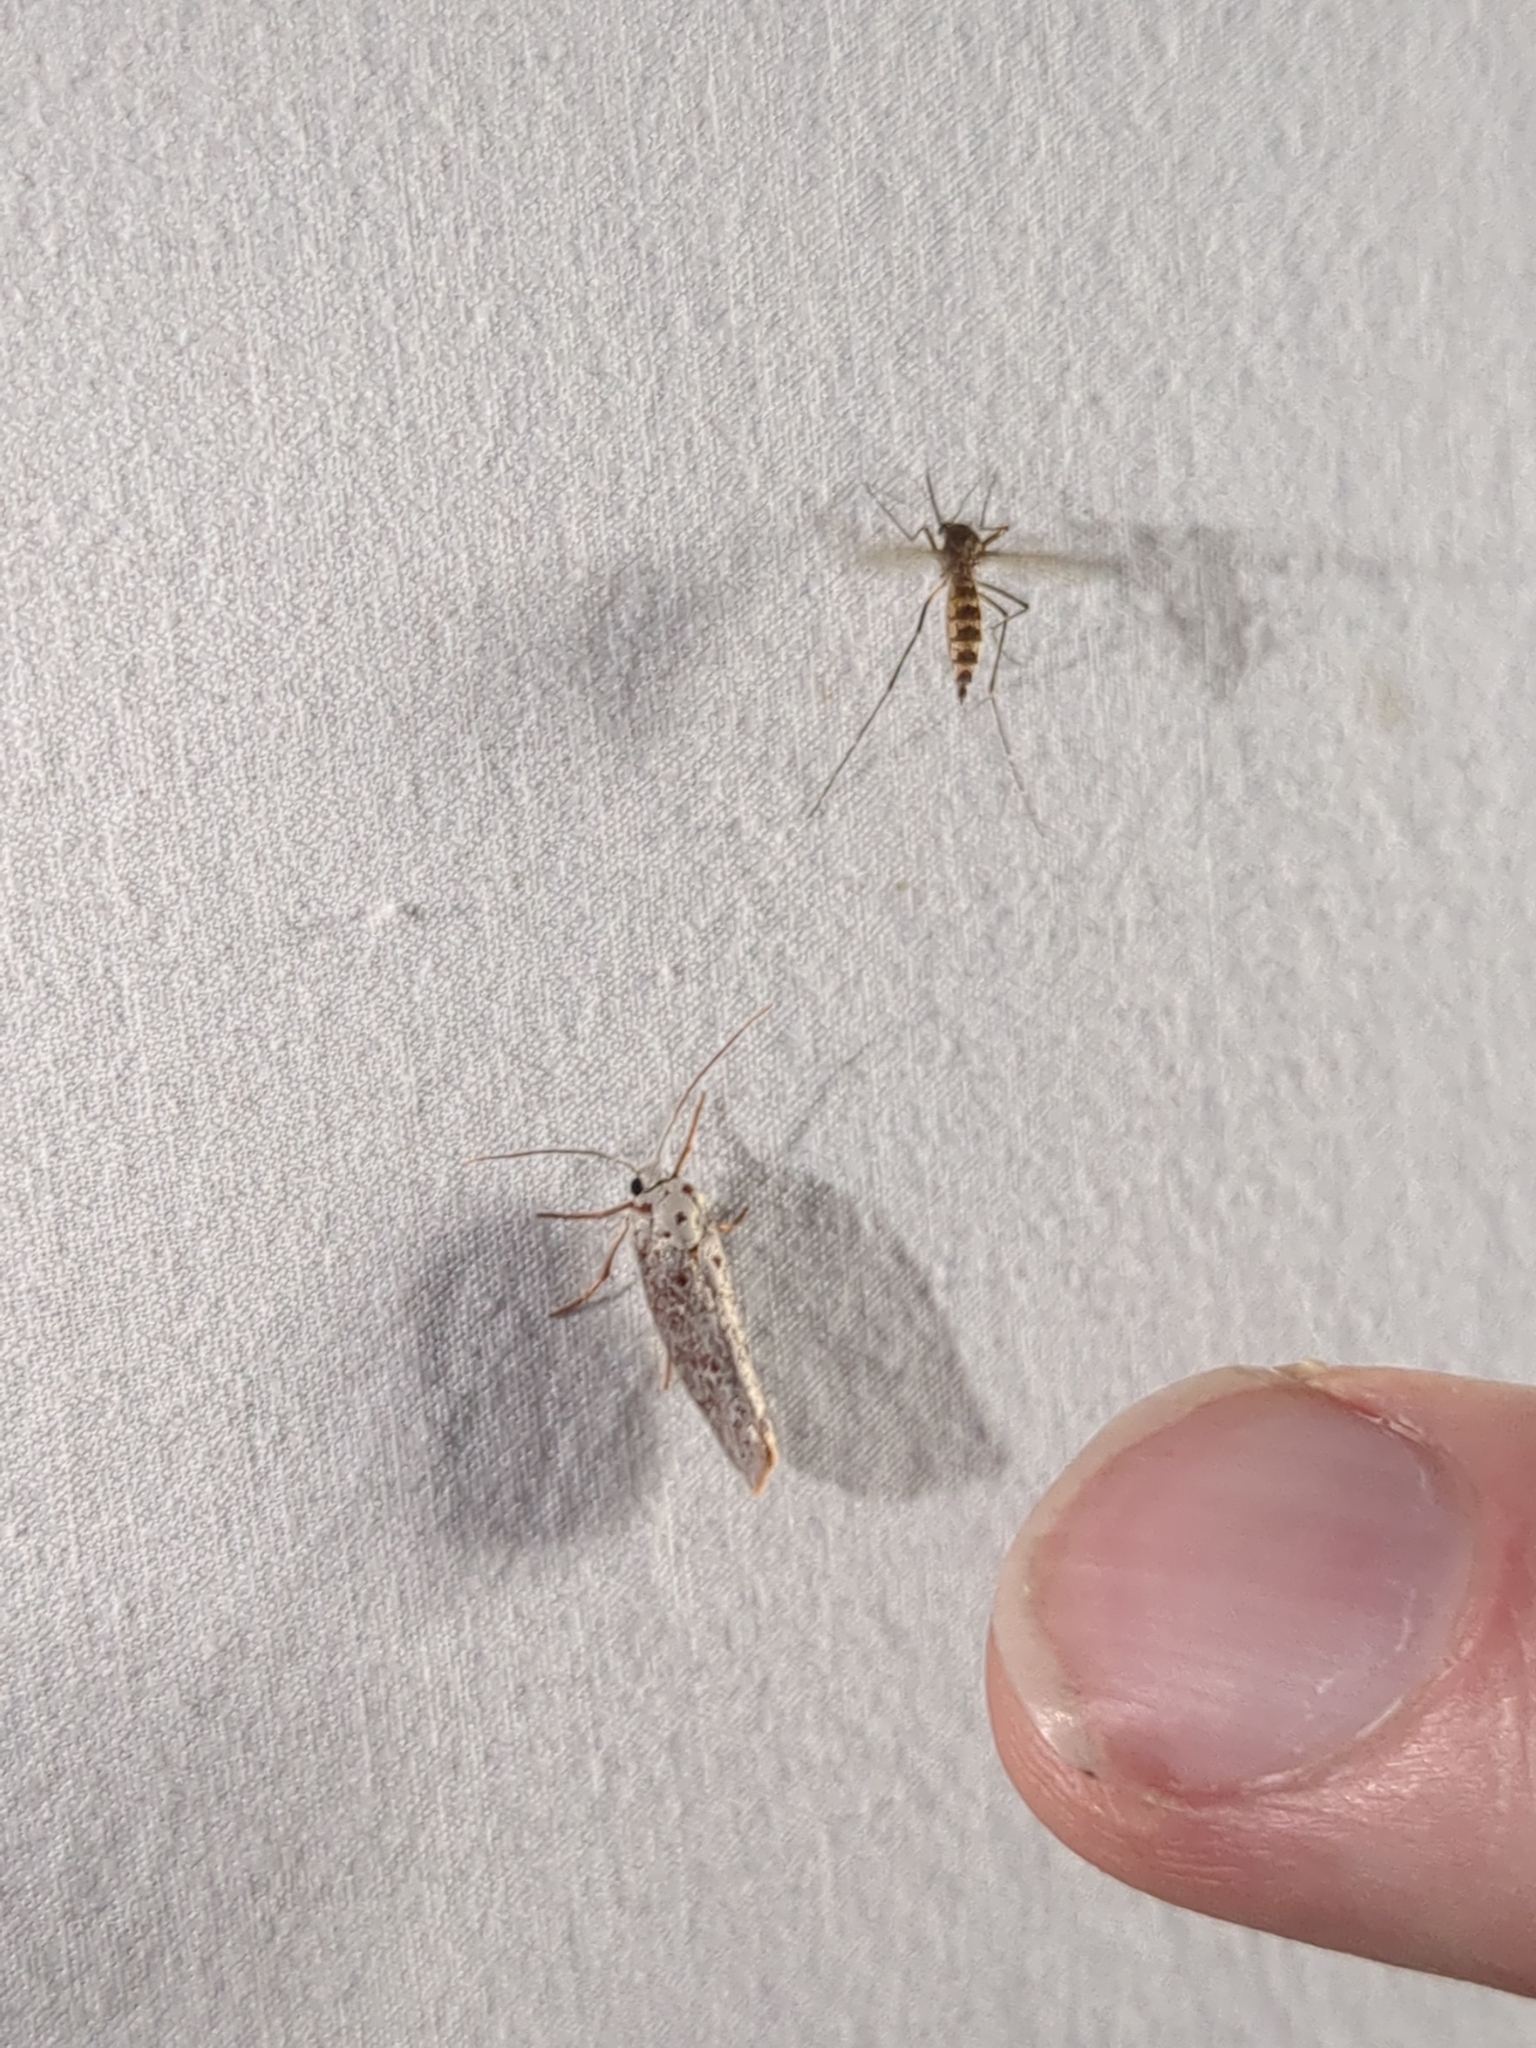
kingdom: Animalia
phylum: Arthropoda
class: Insecta
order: Lepidoptera
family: Lacturidae
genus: Lactura
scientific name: Lactura
